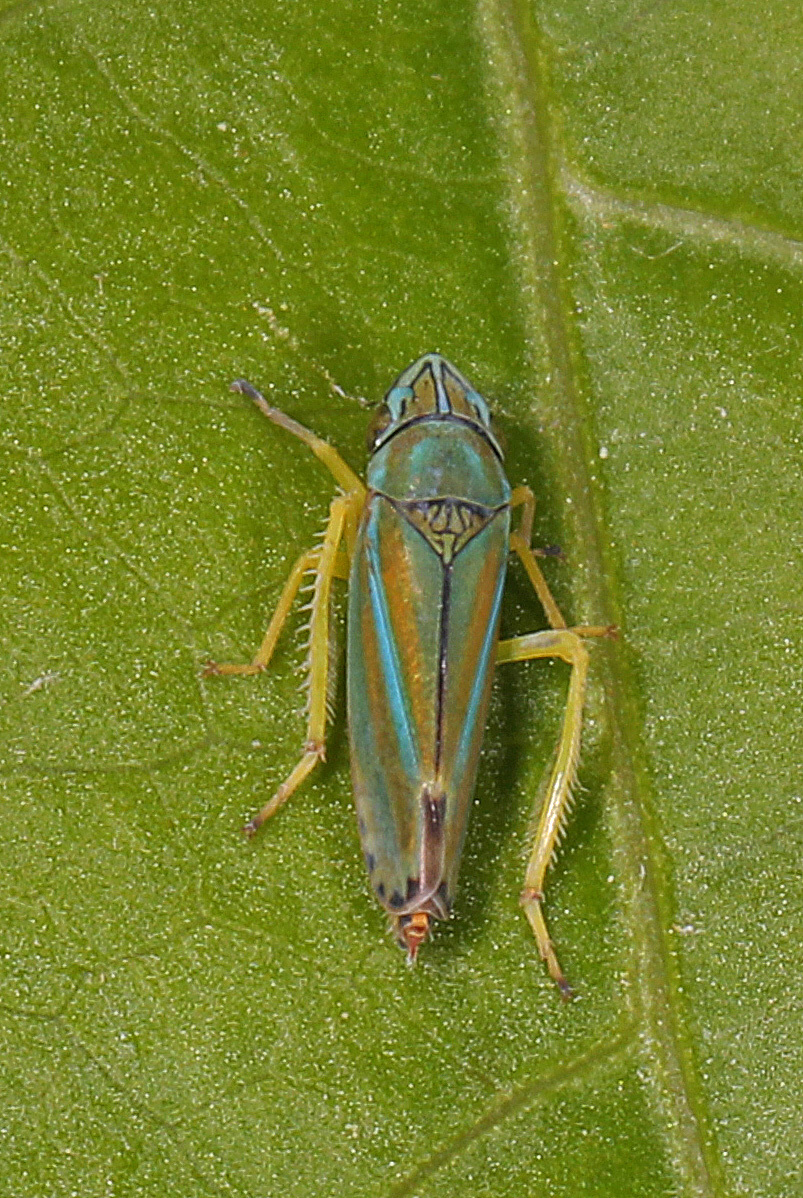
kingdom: Animalia
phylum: Arthropoda
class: Insecta
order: Hemiptera
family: Cicadellidae
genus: Graphocephala
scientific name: Graphocephala versuta
